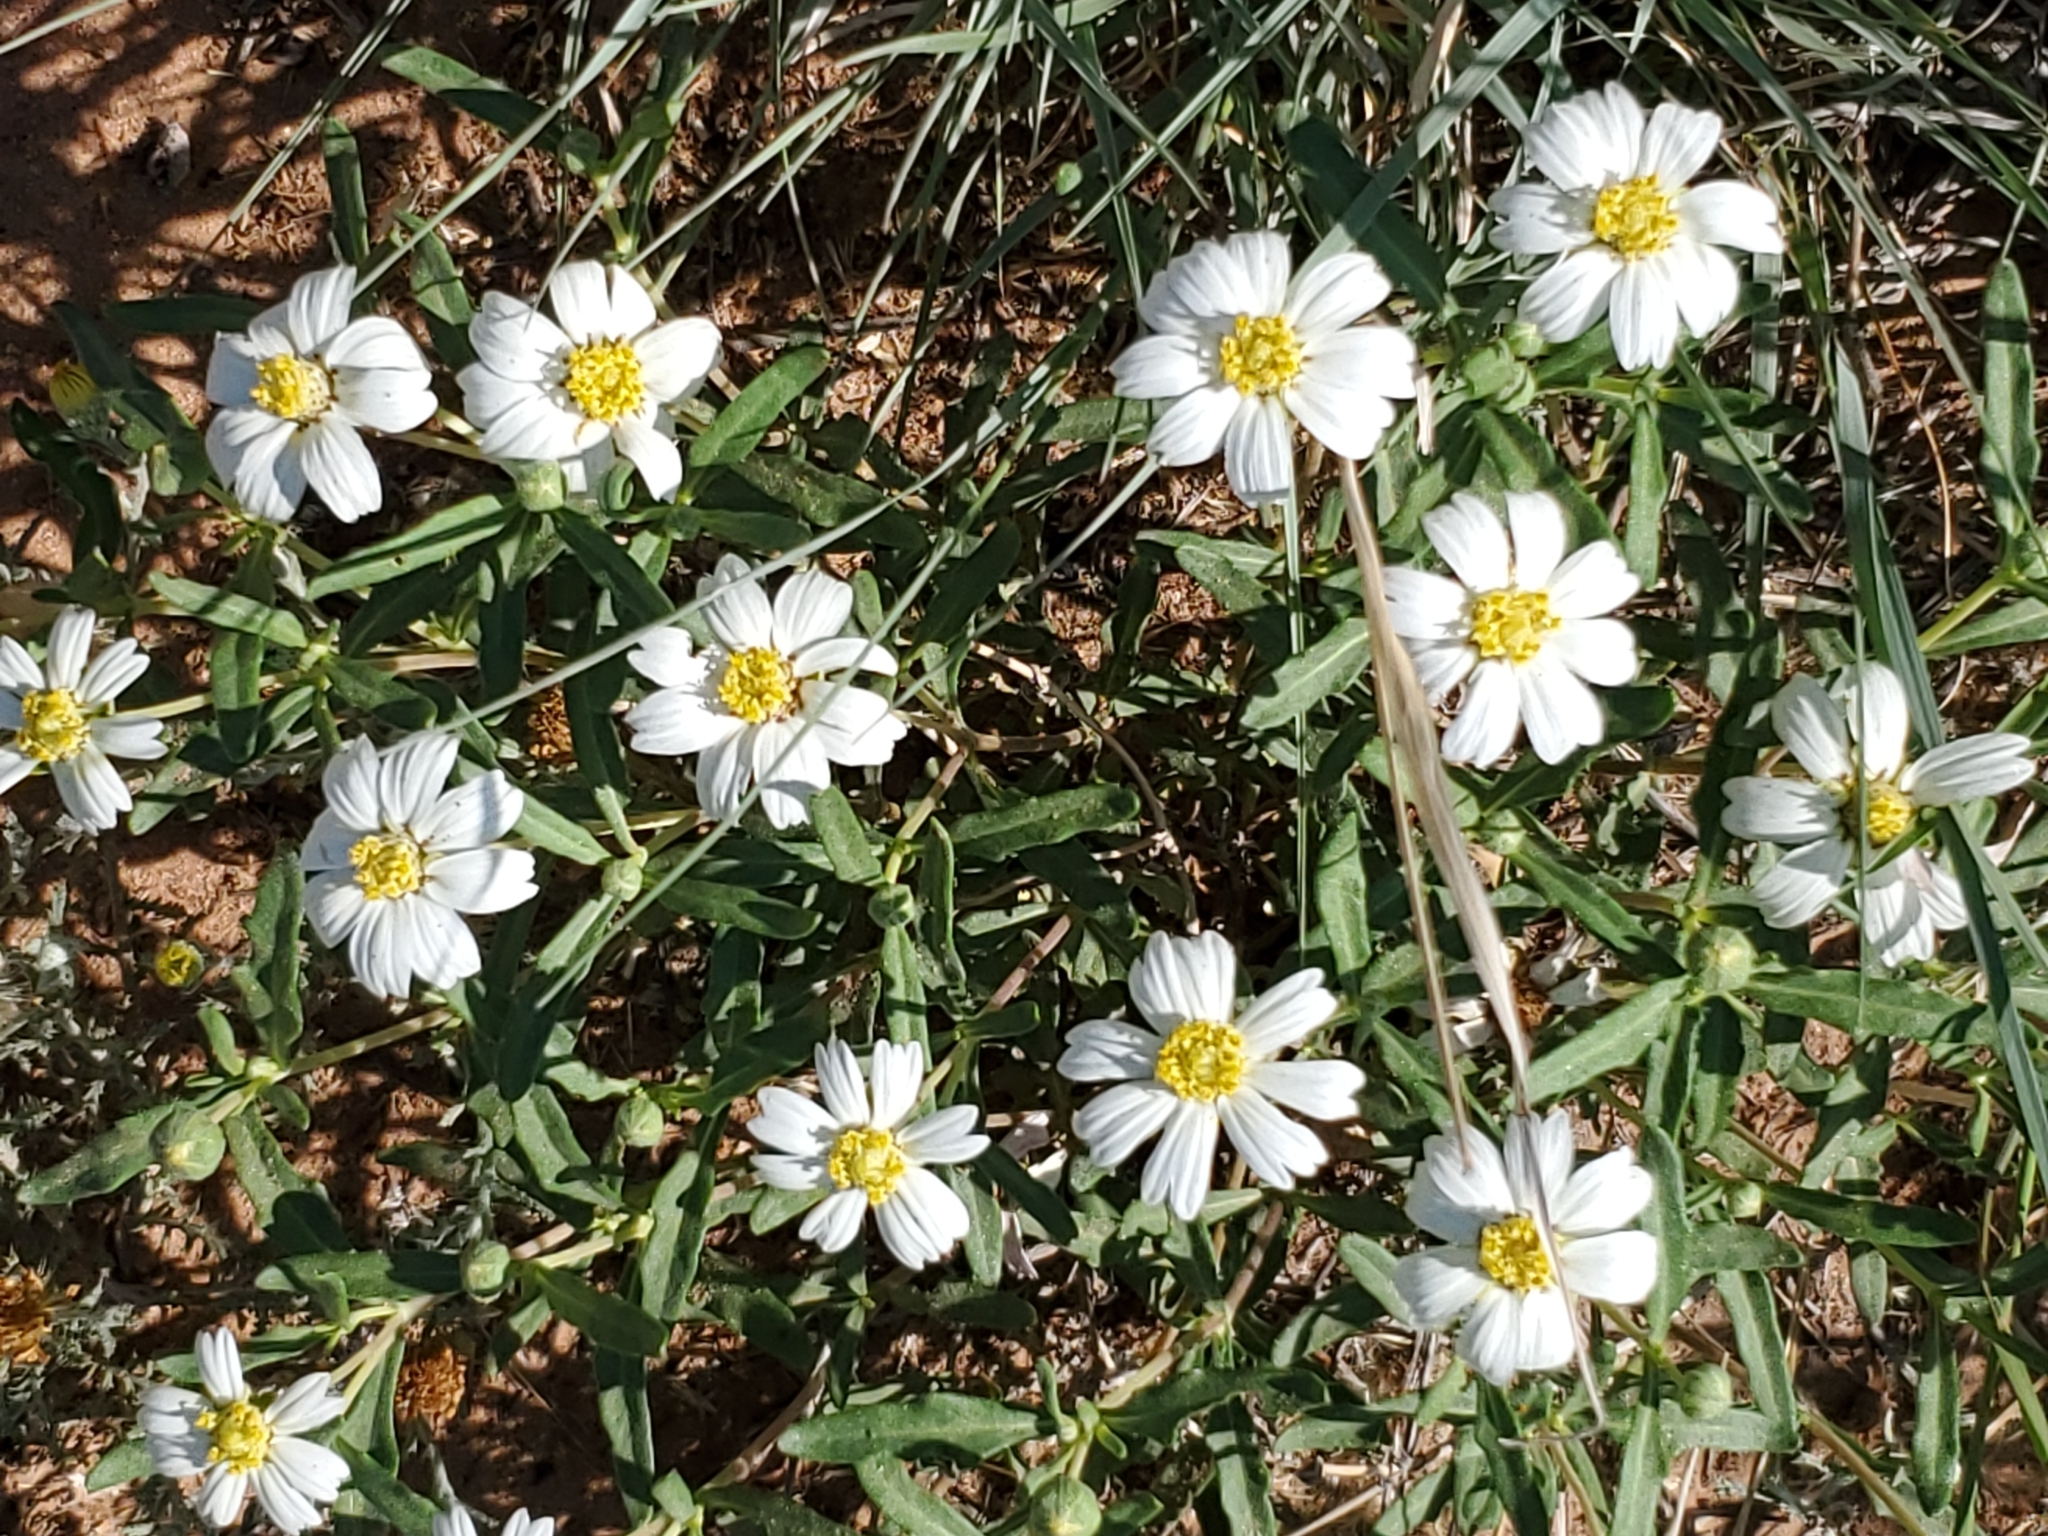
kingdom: Plantae
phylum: Tracheophyta
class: Magnoliopsida
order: Asterales
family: Asteraceae
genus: Melampodium
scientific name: Melampodium leucanthum
